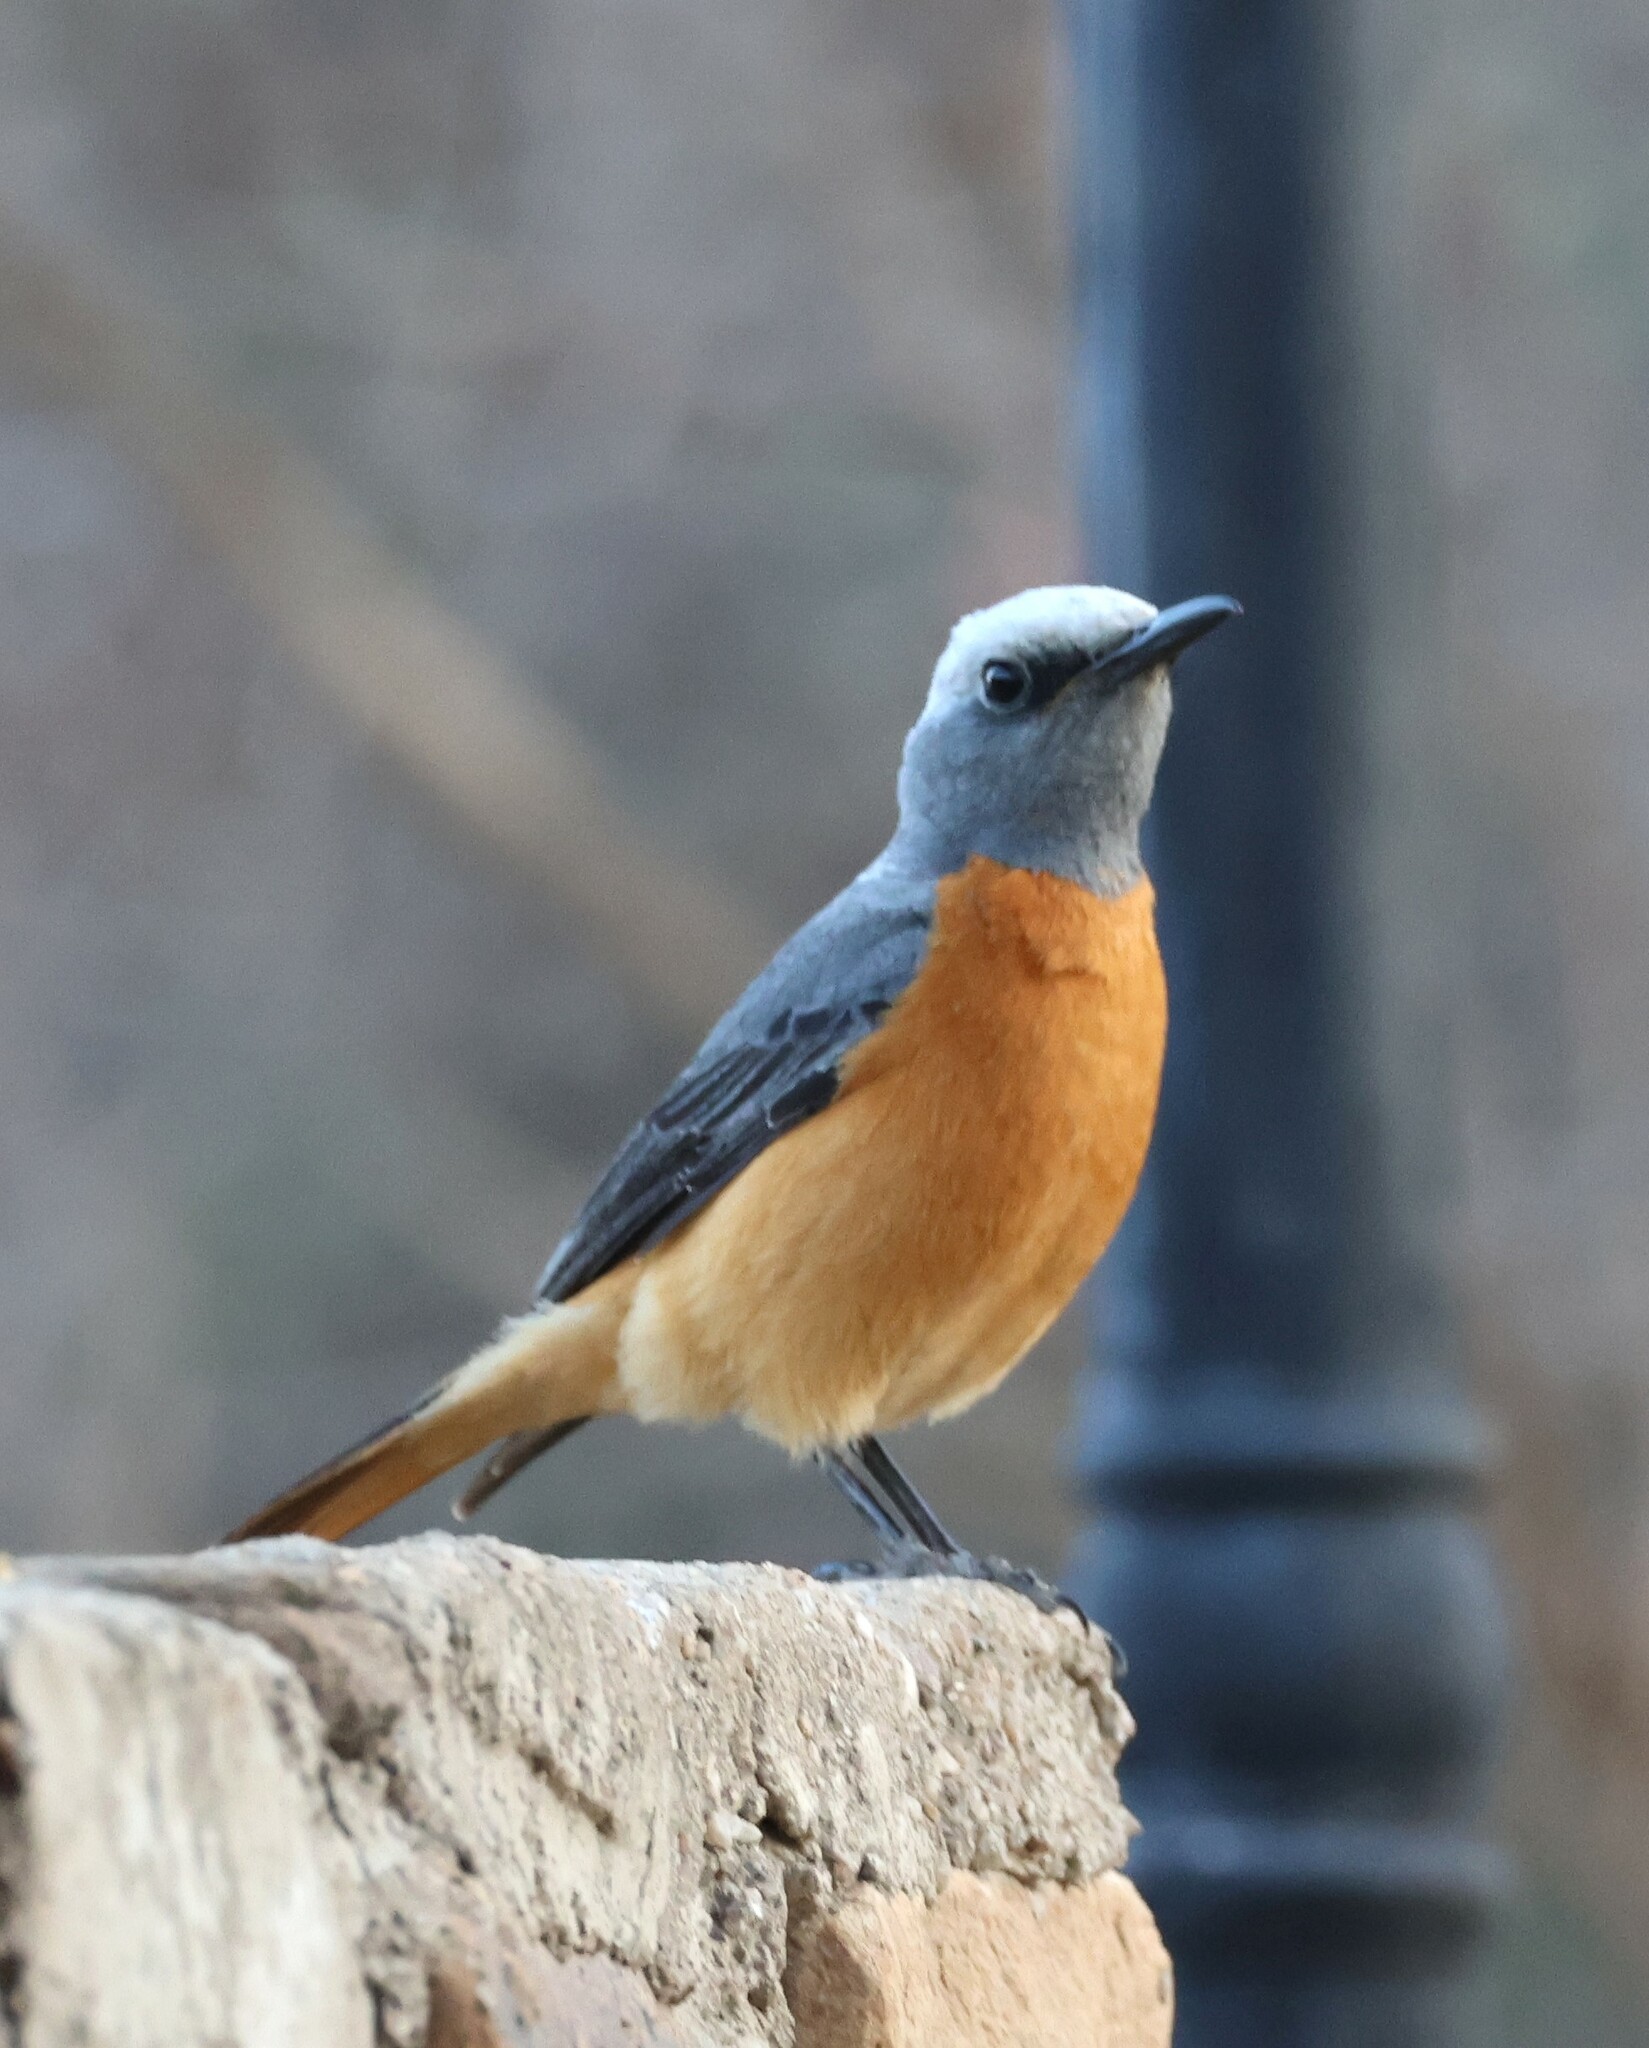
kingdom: Animalia
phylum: Chordata
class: Aves
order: Passeriformes
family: Muscicapidae
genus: Monticola
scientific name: Monticola brevipes
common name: Short-toed rock thrush
